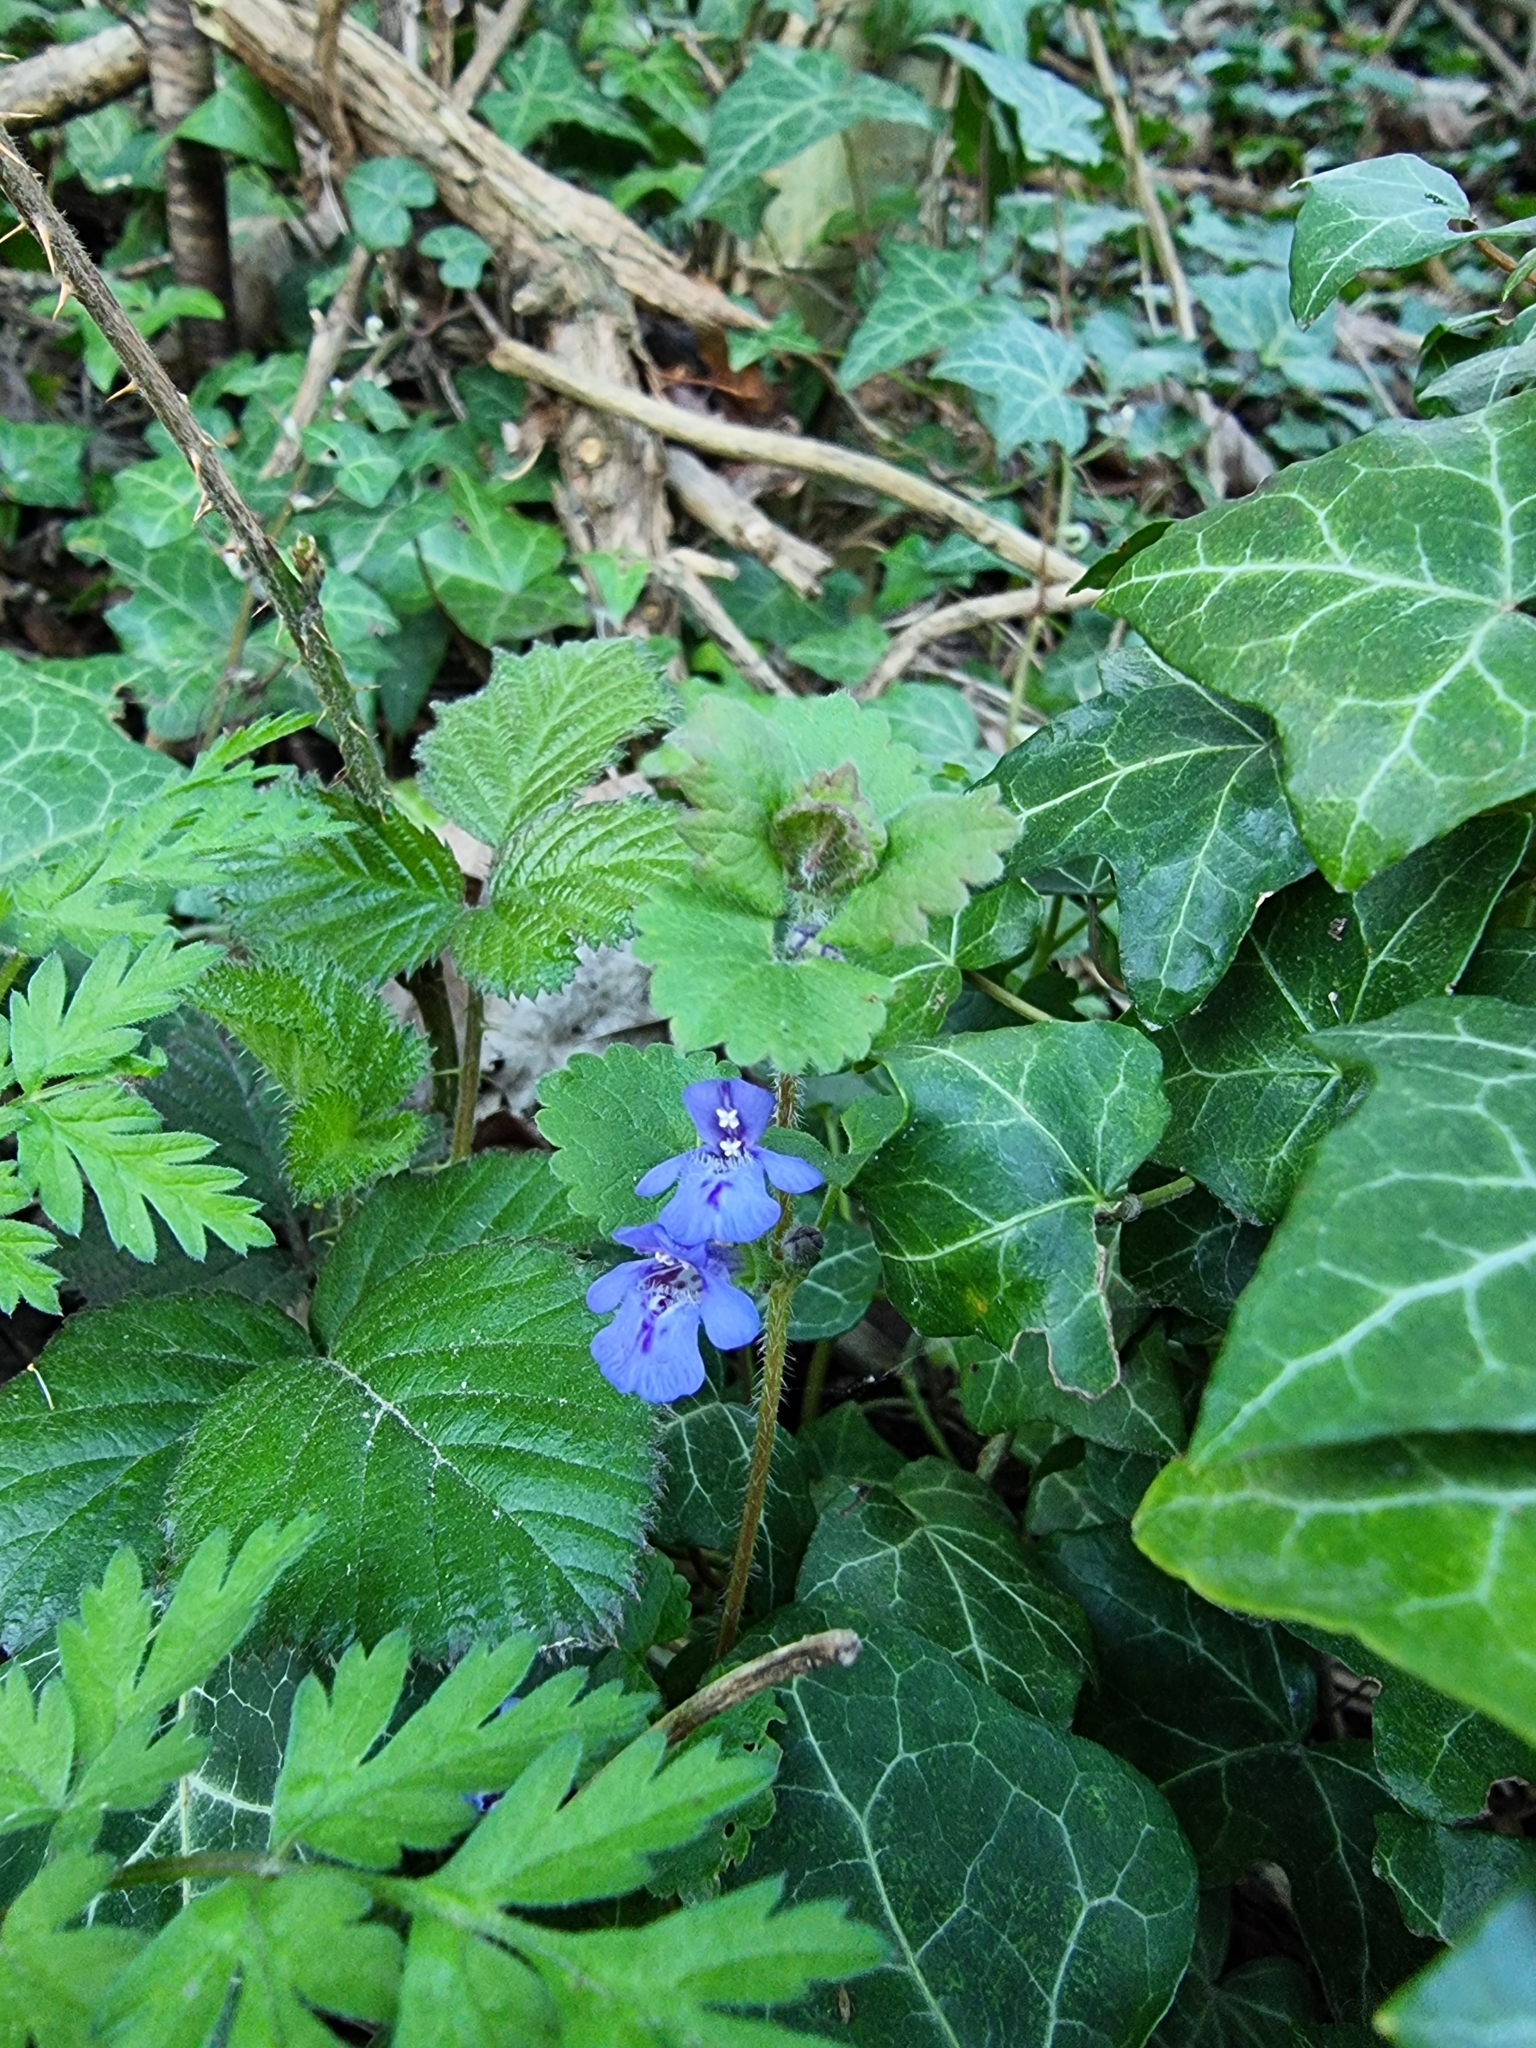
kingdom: Plantae
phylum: Tracheophyta
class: Magnoliopsida
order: Lamiales
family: Lamiaceae
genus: Glechoma
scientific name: Glechoma hederacea
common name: Ground ivy
